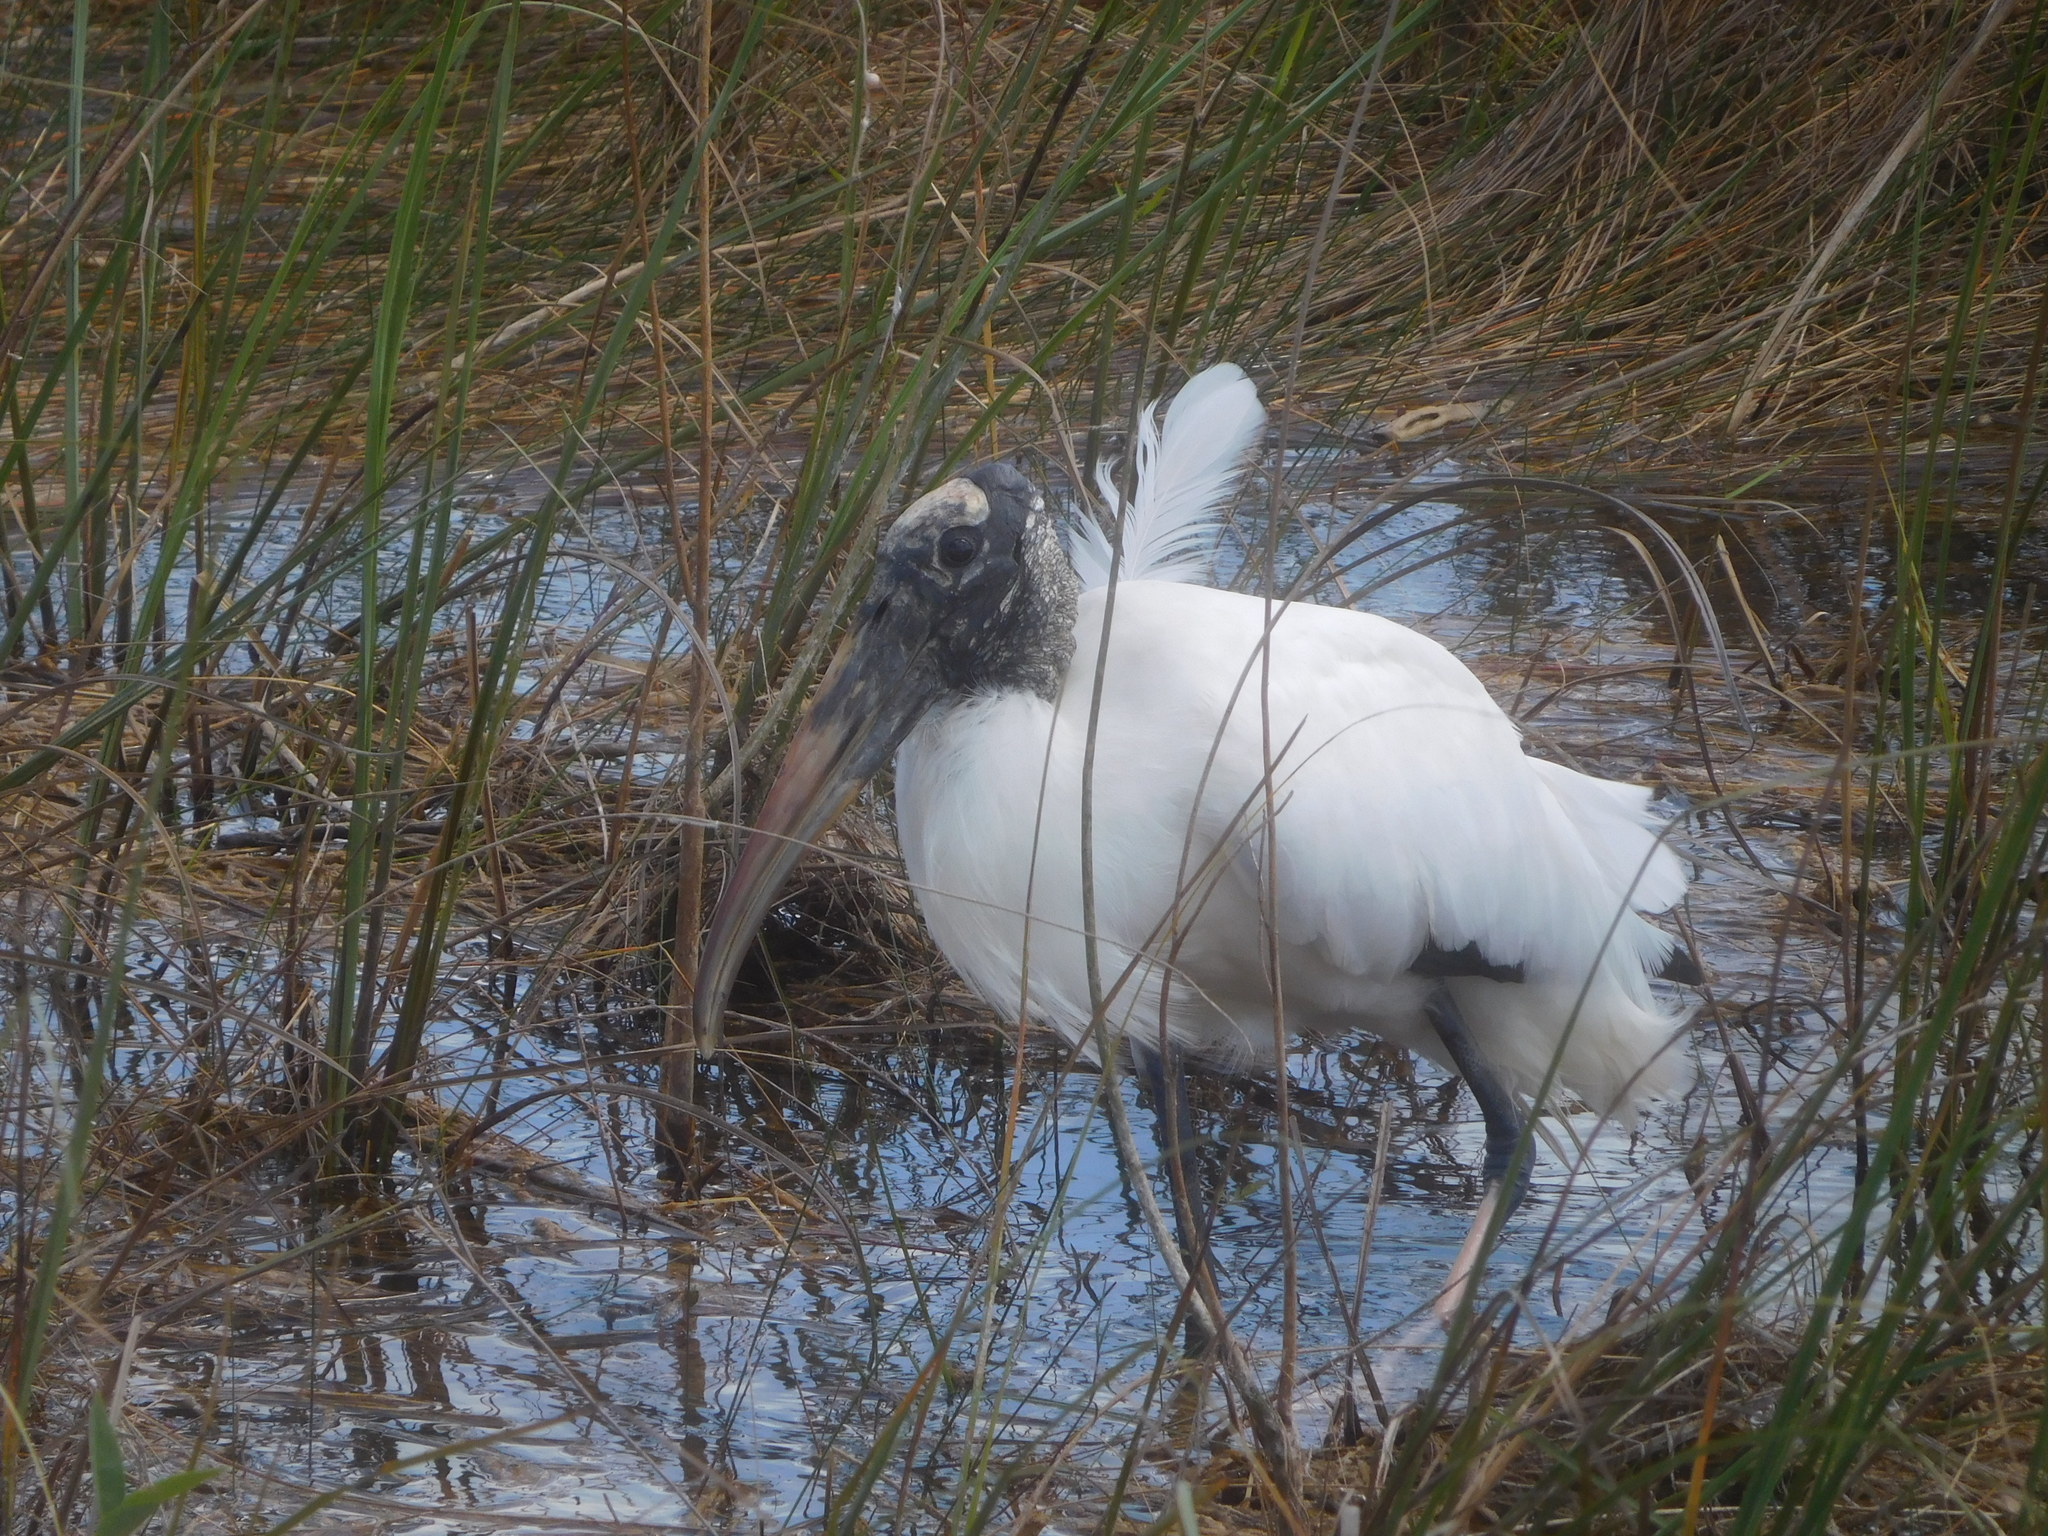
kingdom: Animalia
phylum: Chordata
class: Aves
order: Ciconiiformes
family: Ciconiidae
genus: Mycteria
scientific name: Mycteria americana
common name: Wood stork
